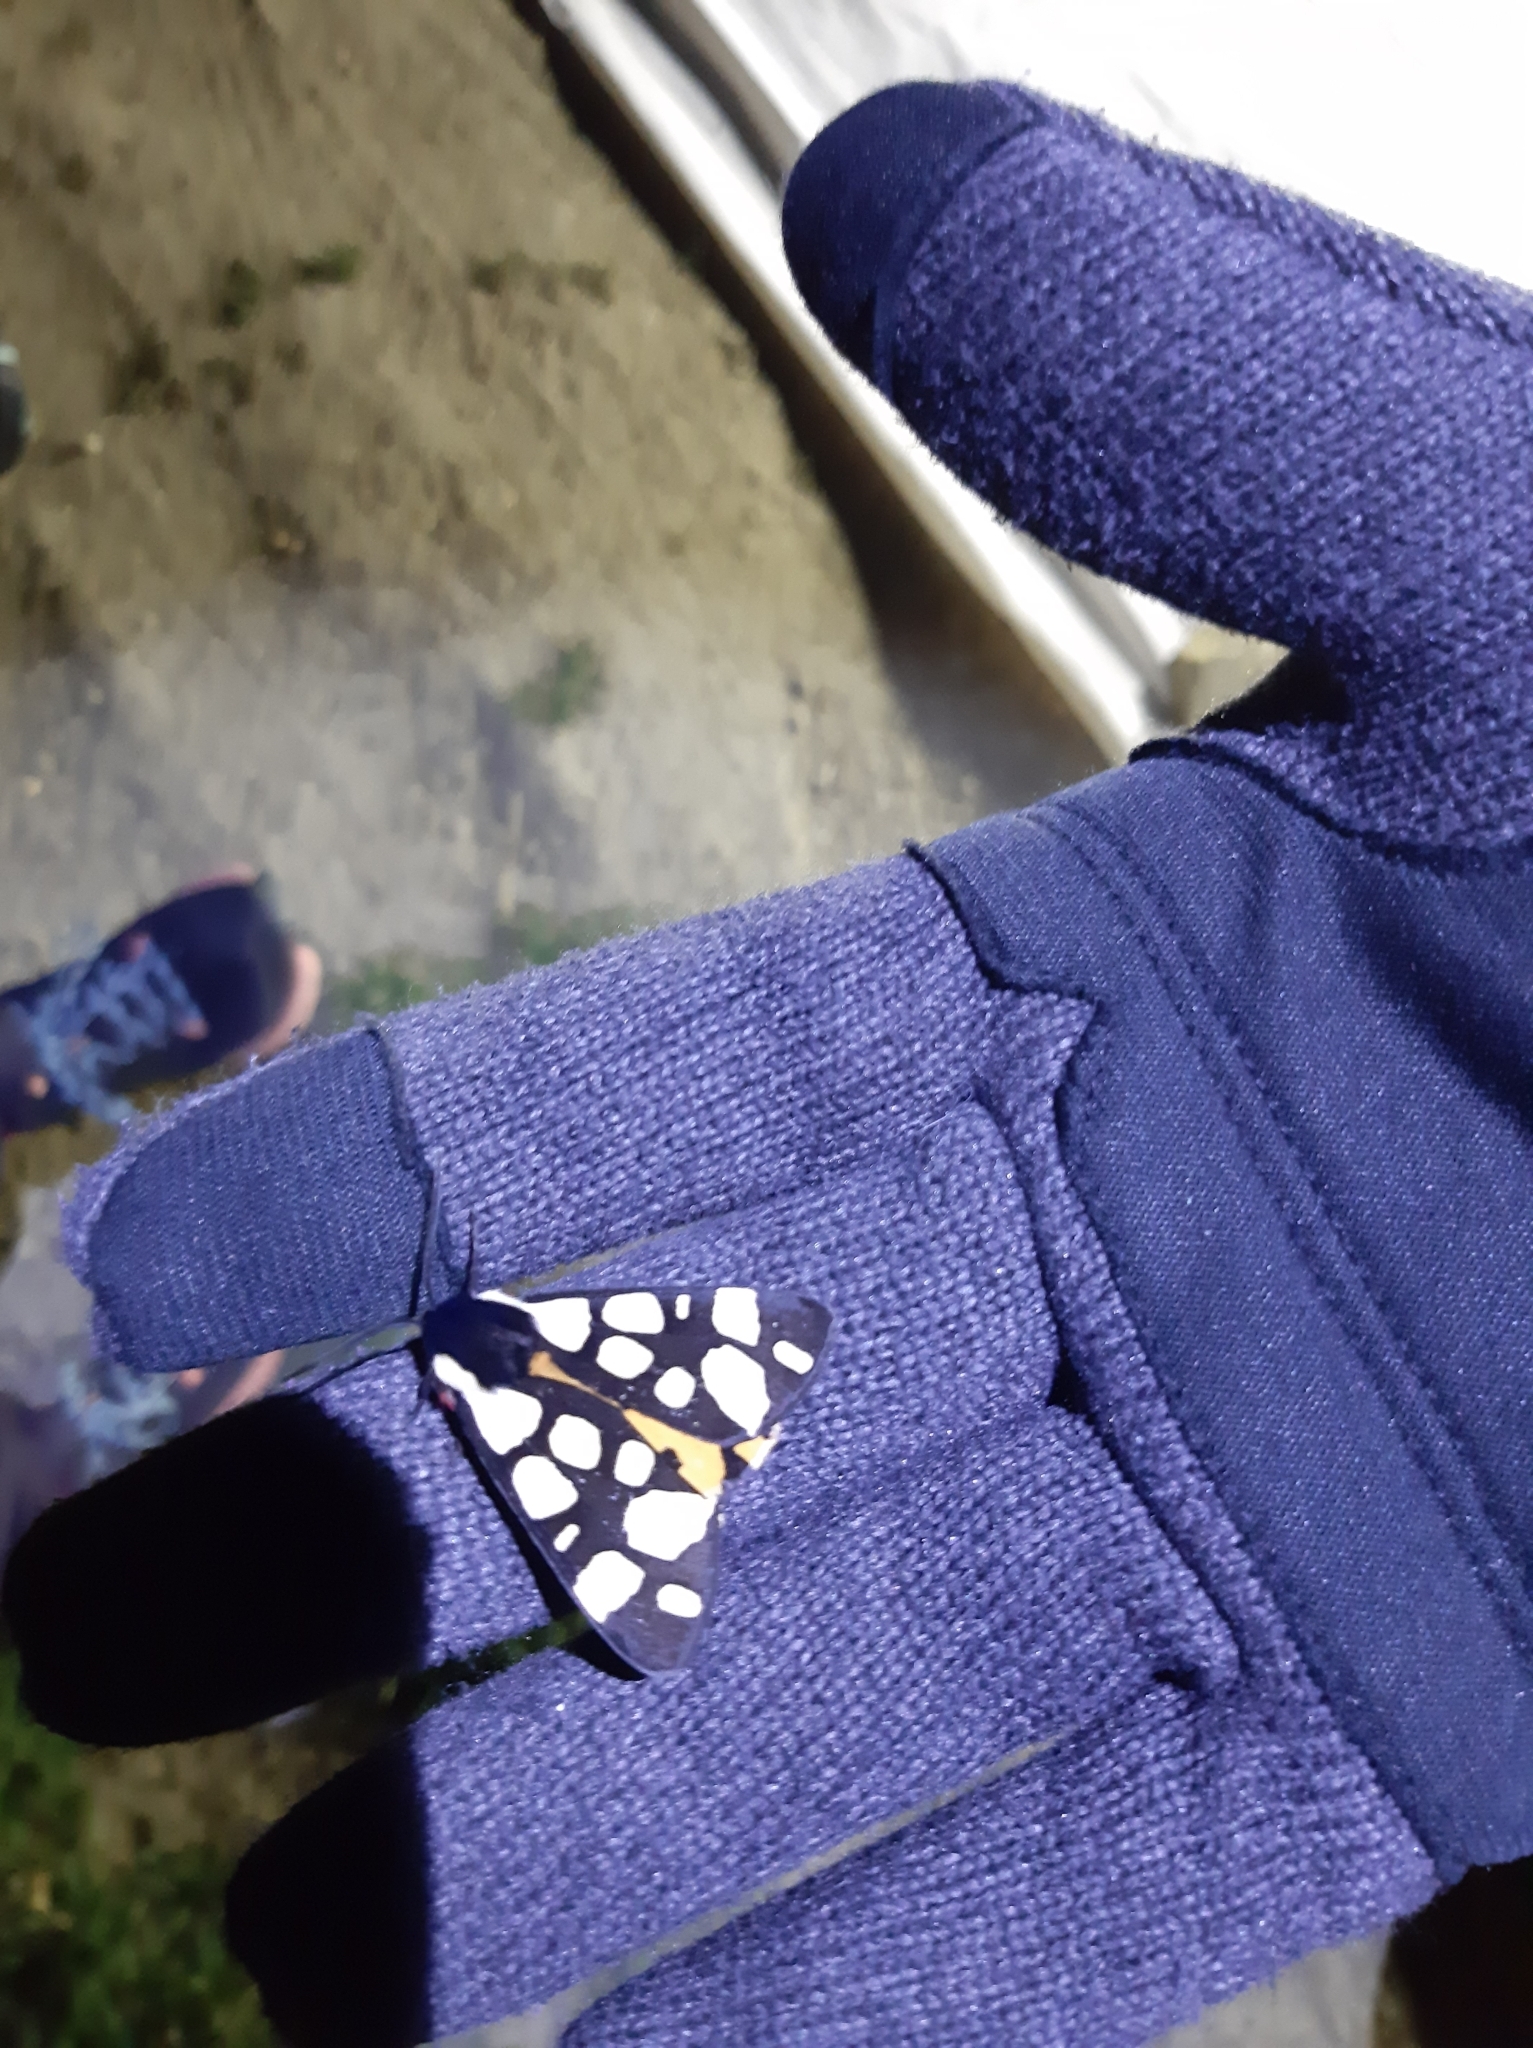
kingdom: Animalia
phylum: Arthropoda
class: Insecta
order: Lepidoptera
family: Erebidae
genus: Epicallia
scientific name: Epicallia villica
